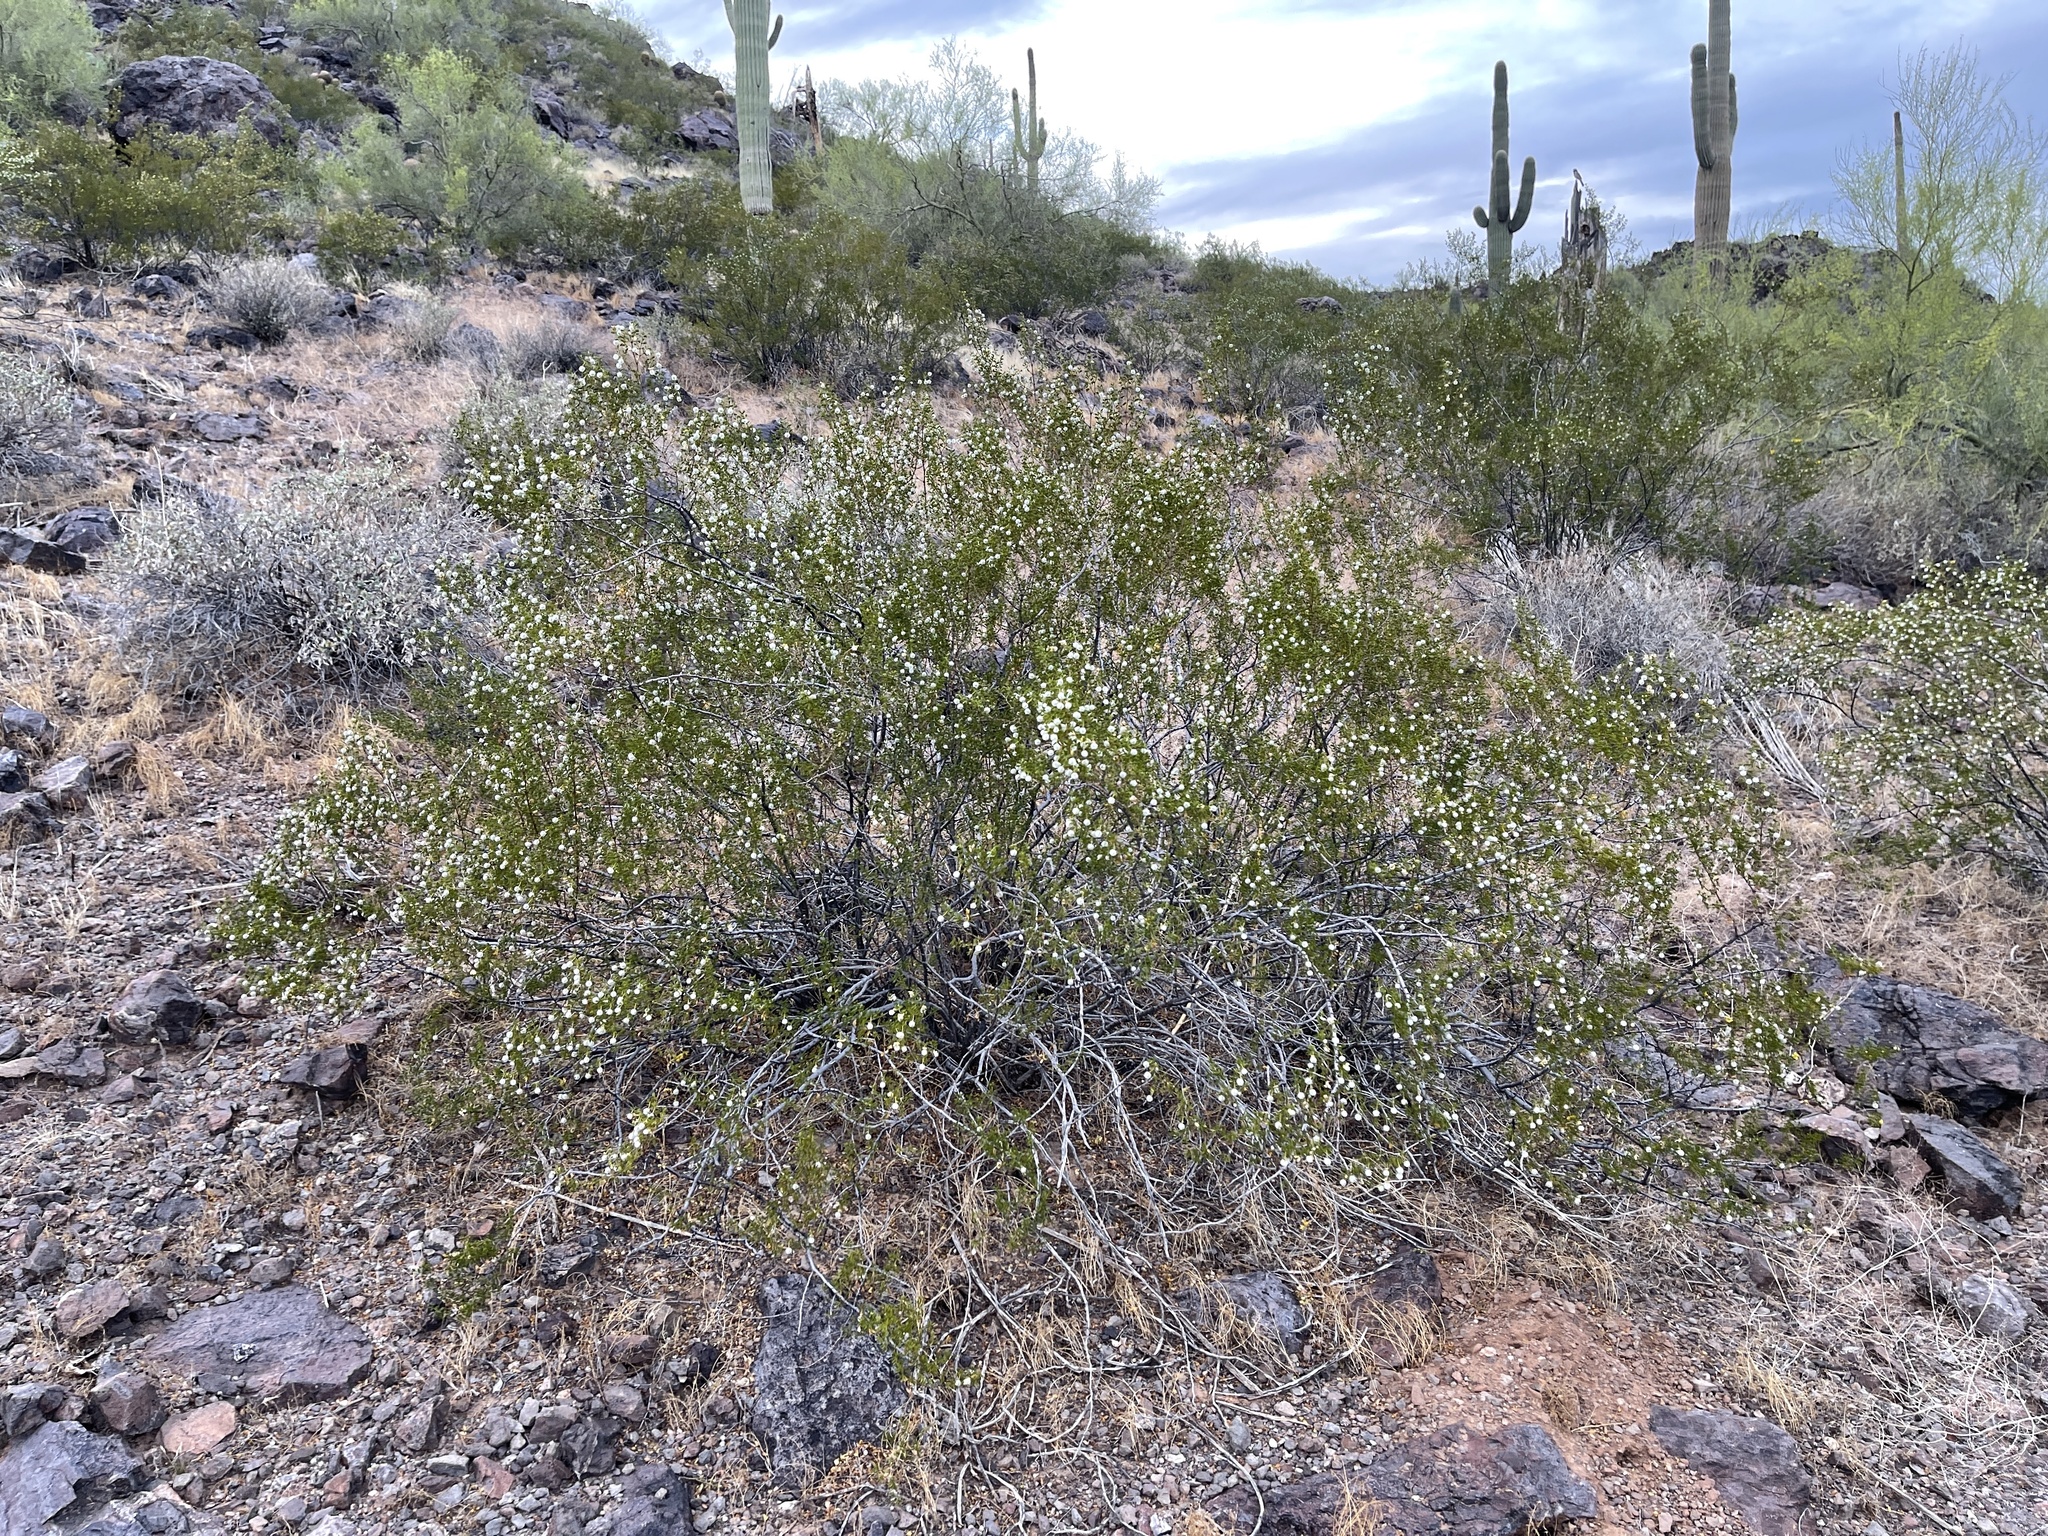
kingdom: Plantae
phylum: Tracheophyta
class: Magnoliopsida
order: Zygophyllales
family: Zygophyllaceae
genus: Larrea
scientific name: Larrea tridentata
